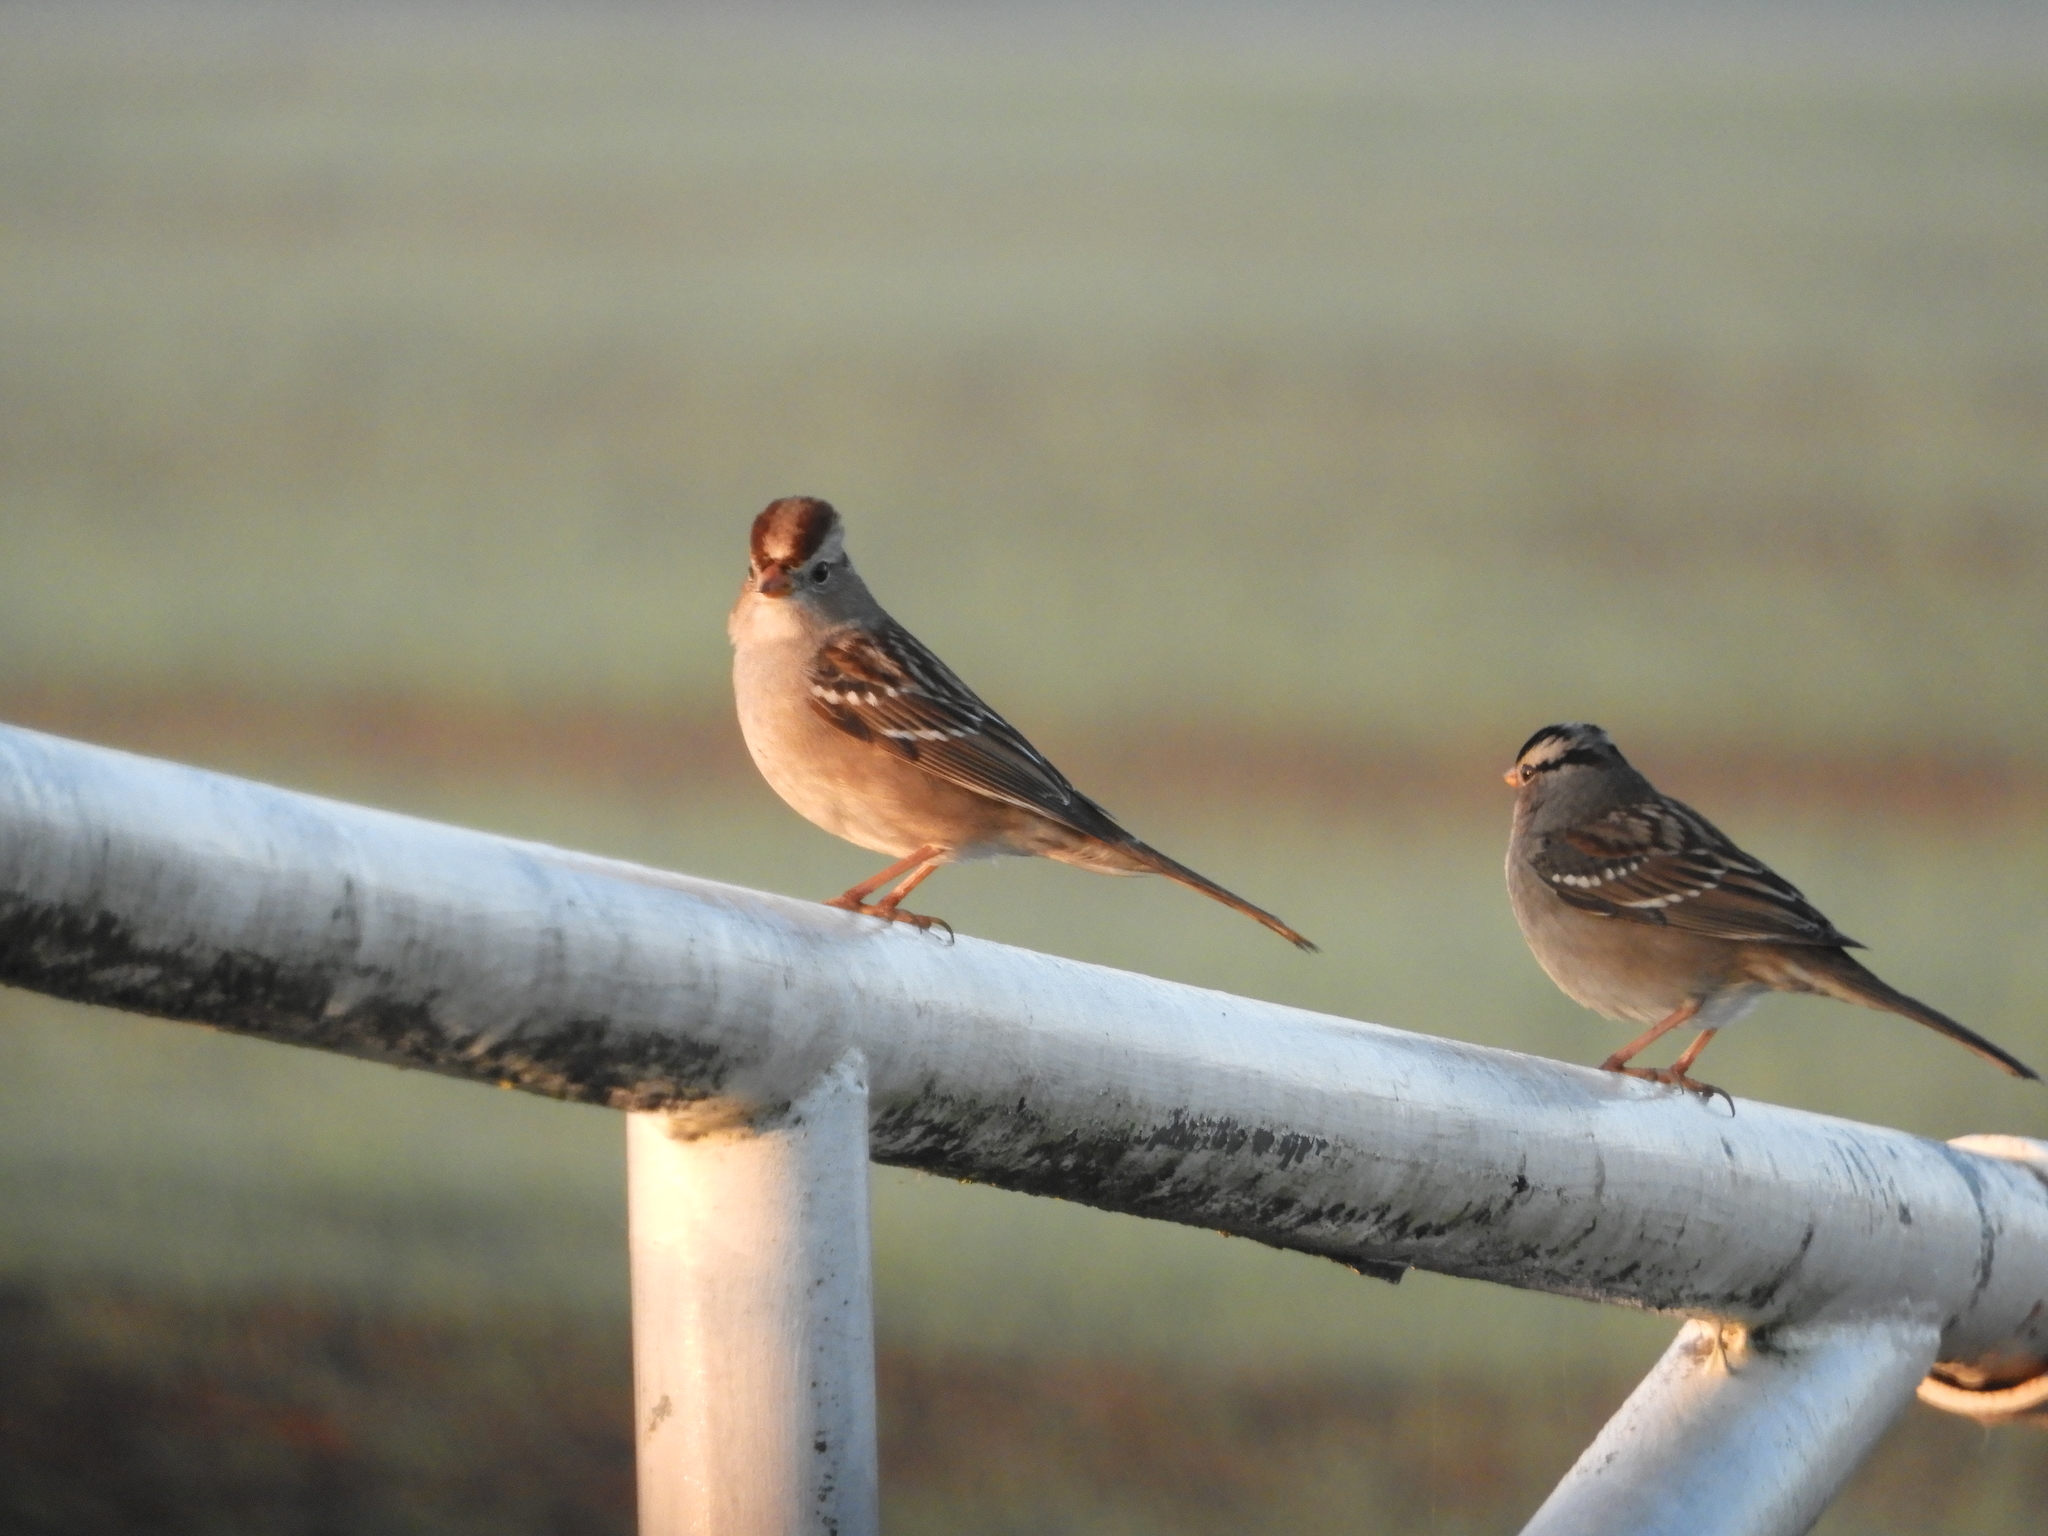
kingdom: Animalia
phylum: Chordata
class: Aves
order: Passeriformes
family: Passerellidae
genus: Zonotrichia
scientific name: Zonotrichia leucophrys
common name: White-crowned sparrow
